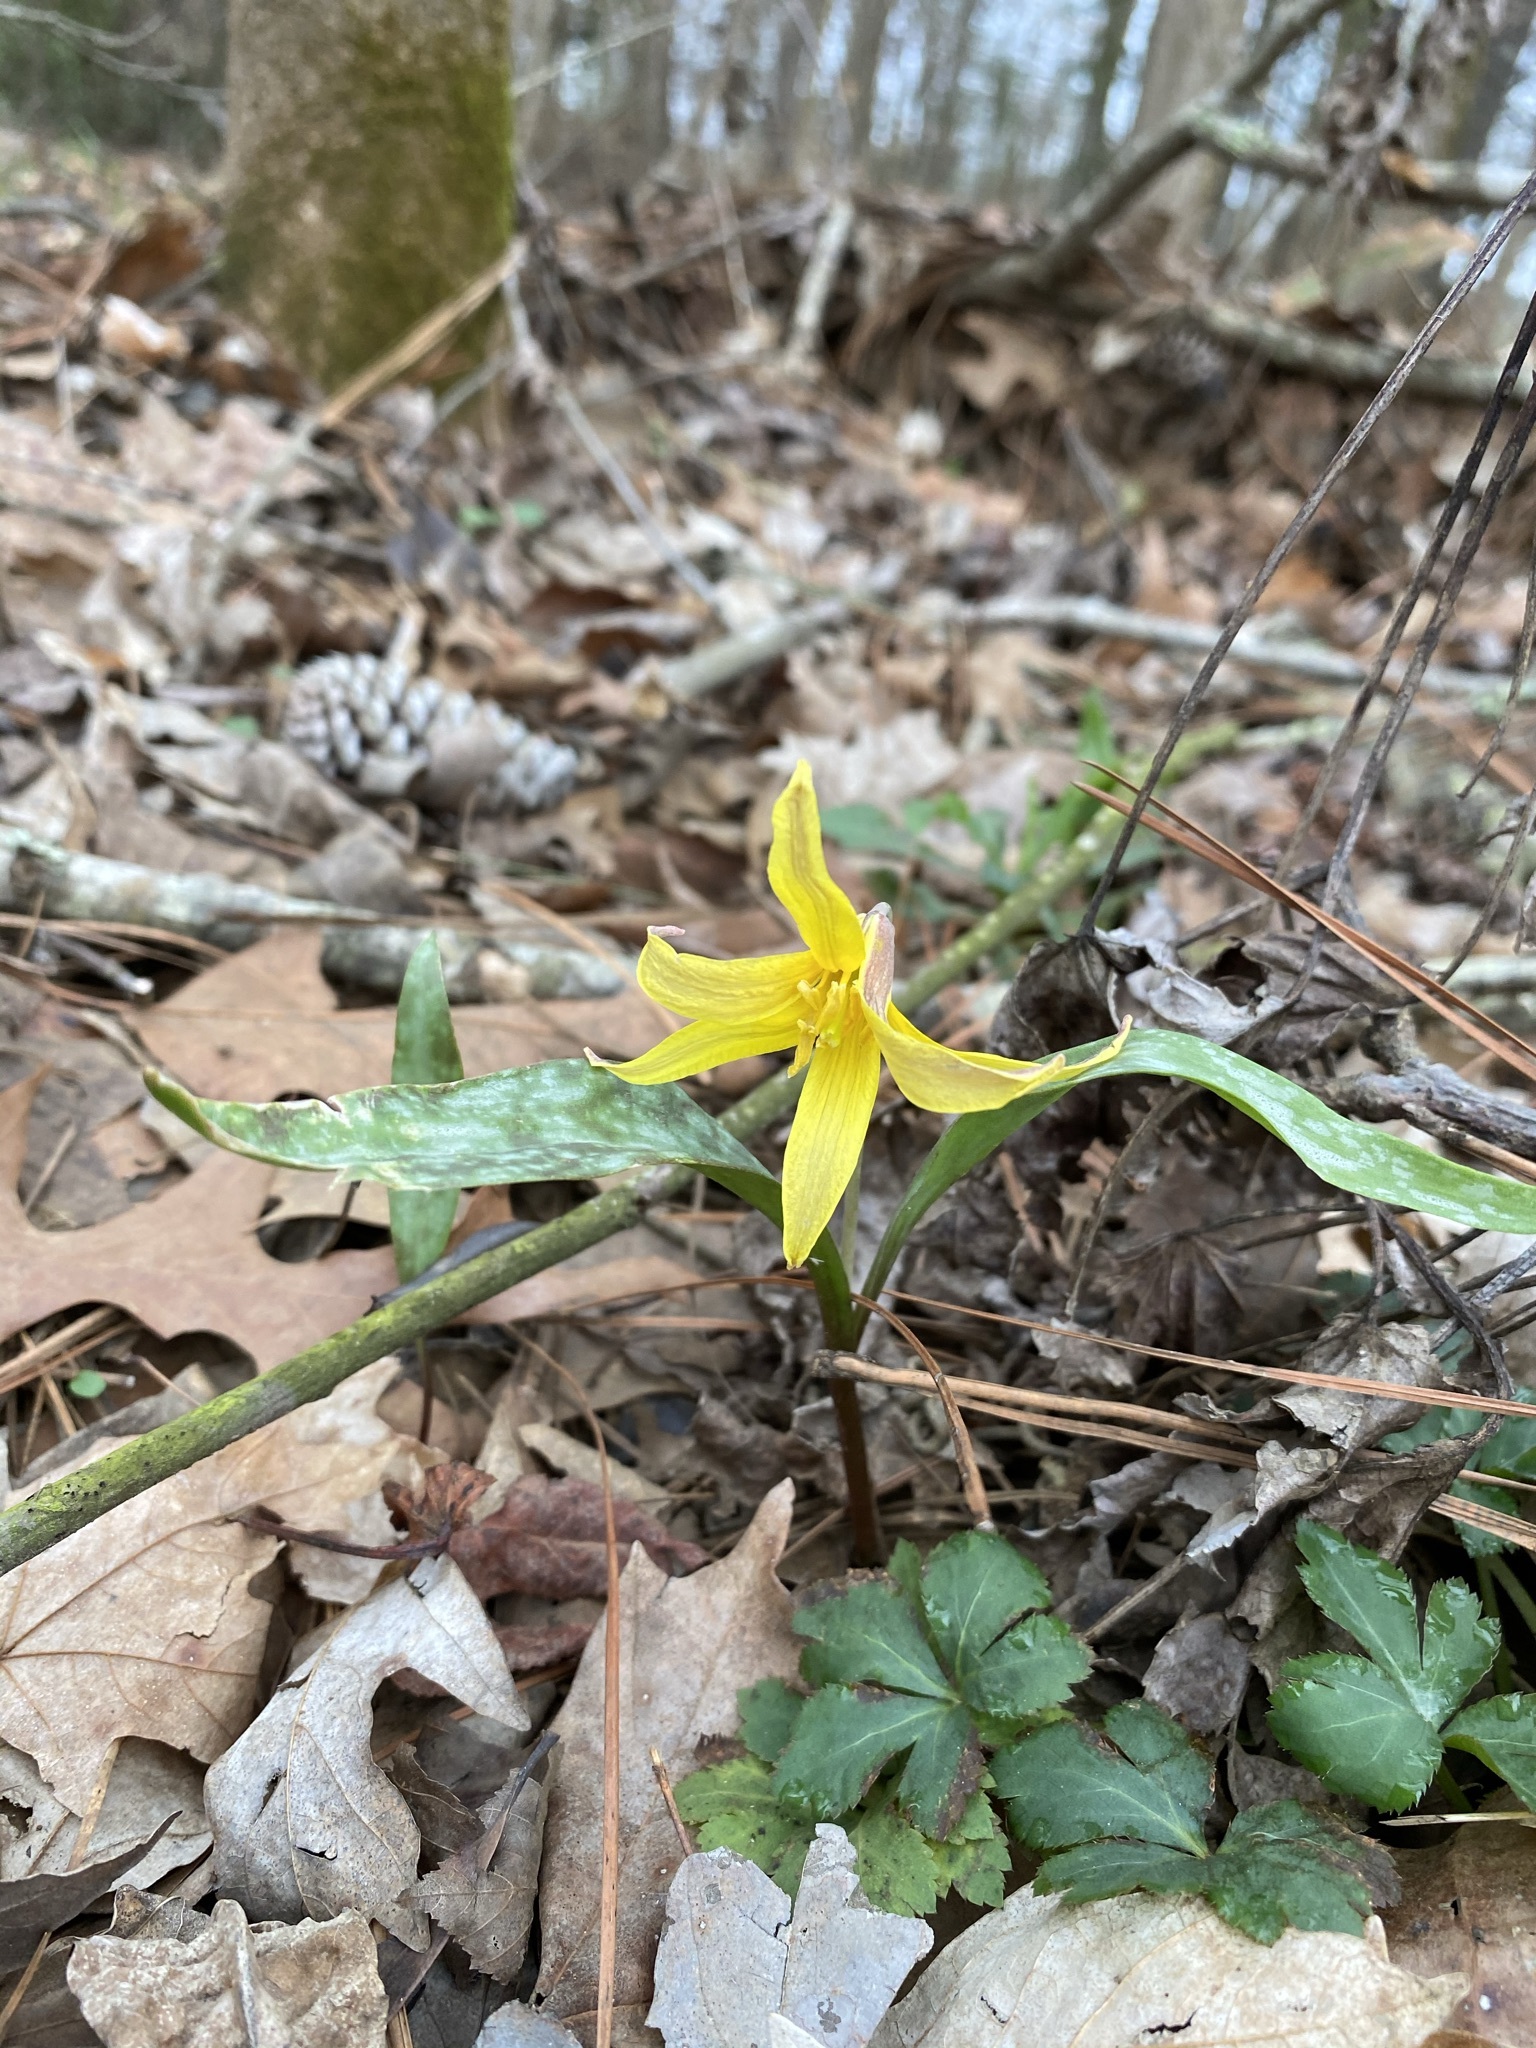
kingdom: Plantae
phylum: Tracheophyta
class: Liliopsida
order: Liliales
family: Liliaceae
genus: Erythronium
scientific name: Erythronium rostratum
